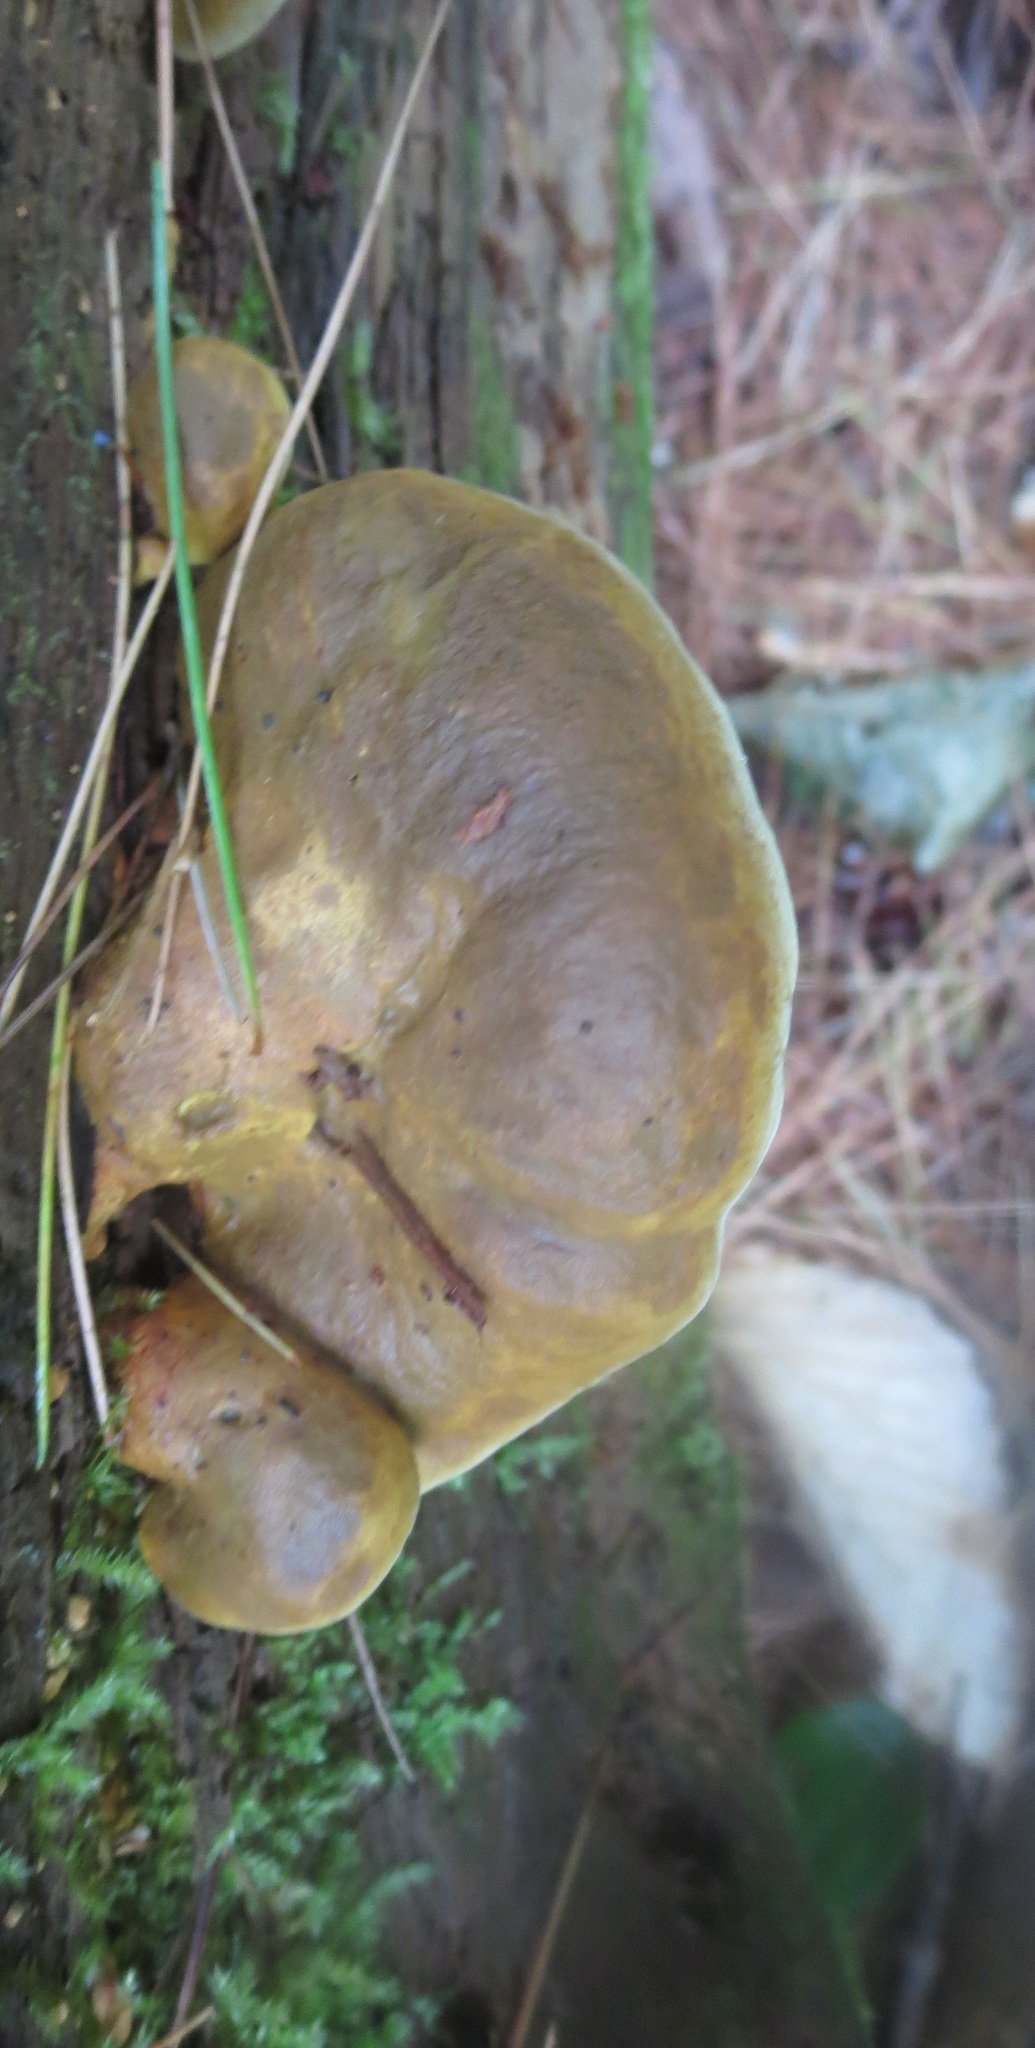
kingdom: Fungi
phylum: Basidiomycota
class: Agaricomycetes
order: Boletales
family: Paxillaceae
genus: Meiorganum
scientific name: Meiorganum curtisii
